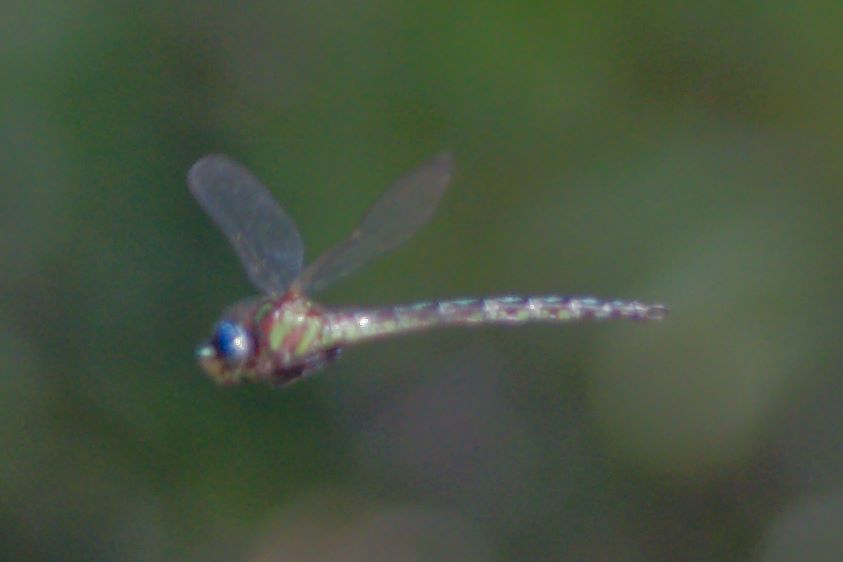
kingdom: Animalia
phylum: Arthropoda
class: Insecta
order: Odonata
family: Aeshnidae
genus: Nasiaeschna
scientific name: Nasiaeschna pentacantha
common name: Cyrano darner
